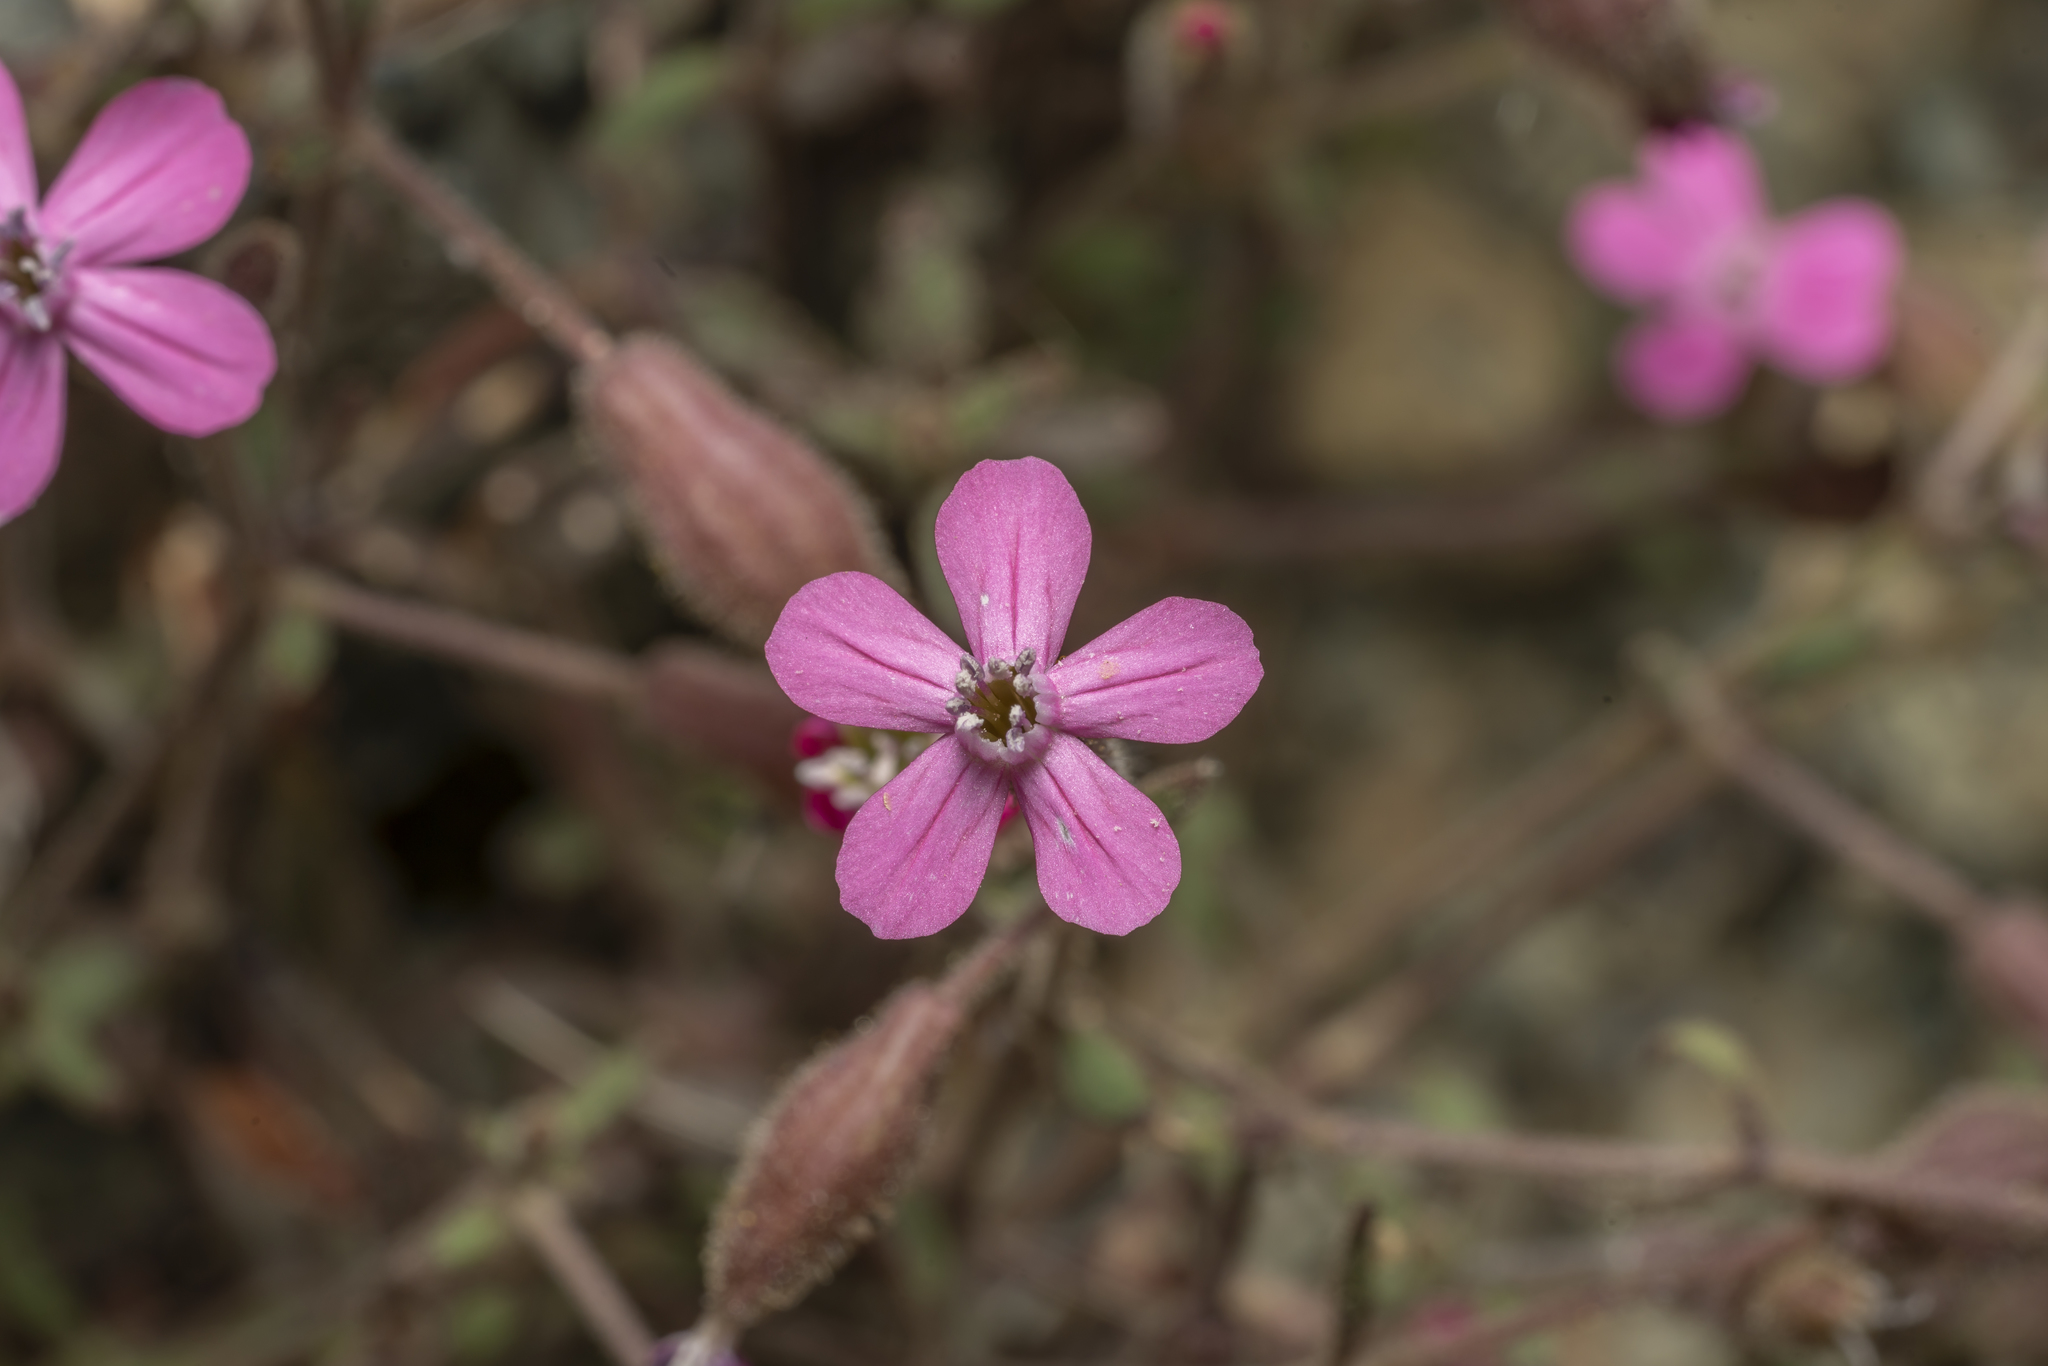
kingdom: Plantae
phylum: Tracheophyta
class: Magnoliopsida
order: Caryophyllales
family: Caryophyllaceae
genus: Silene
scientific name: Silene salamandra
